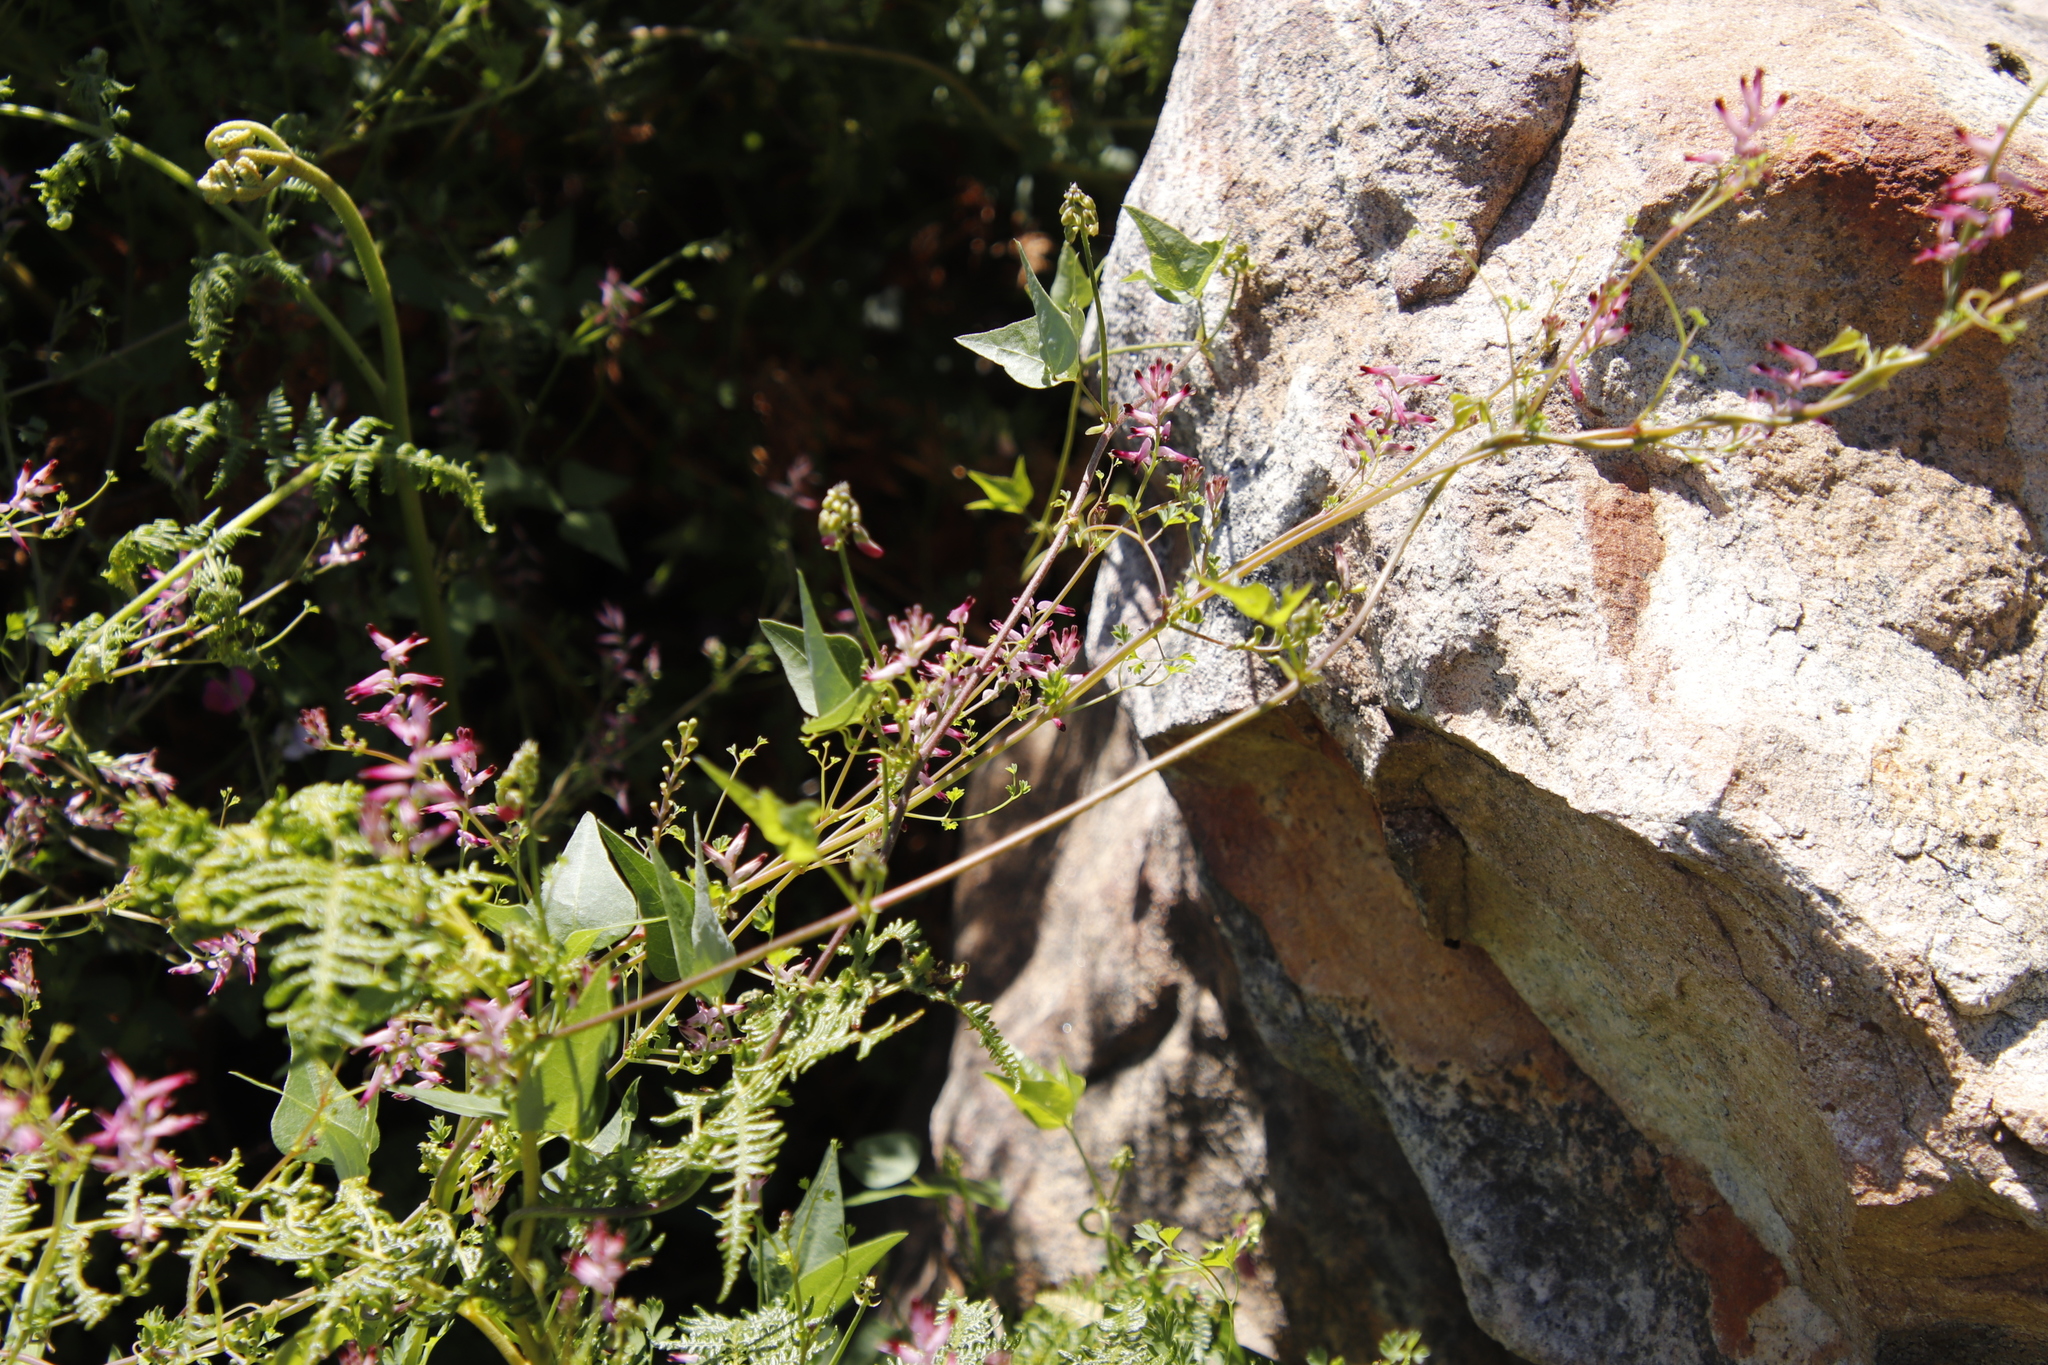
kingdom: Plantae
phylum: Tracheophyta
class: Magnoliopsida
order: Ranunculales
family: Papaveraceae
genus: Fumaria
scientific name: Fumaria muralis
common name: Common ramping-fumitory
